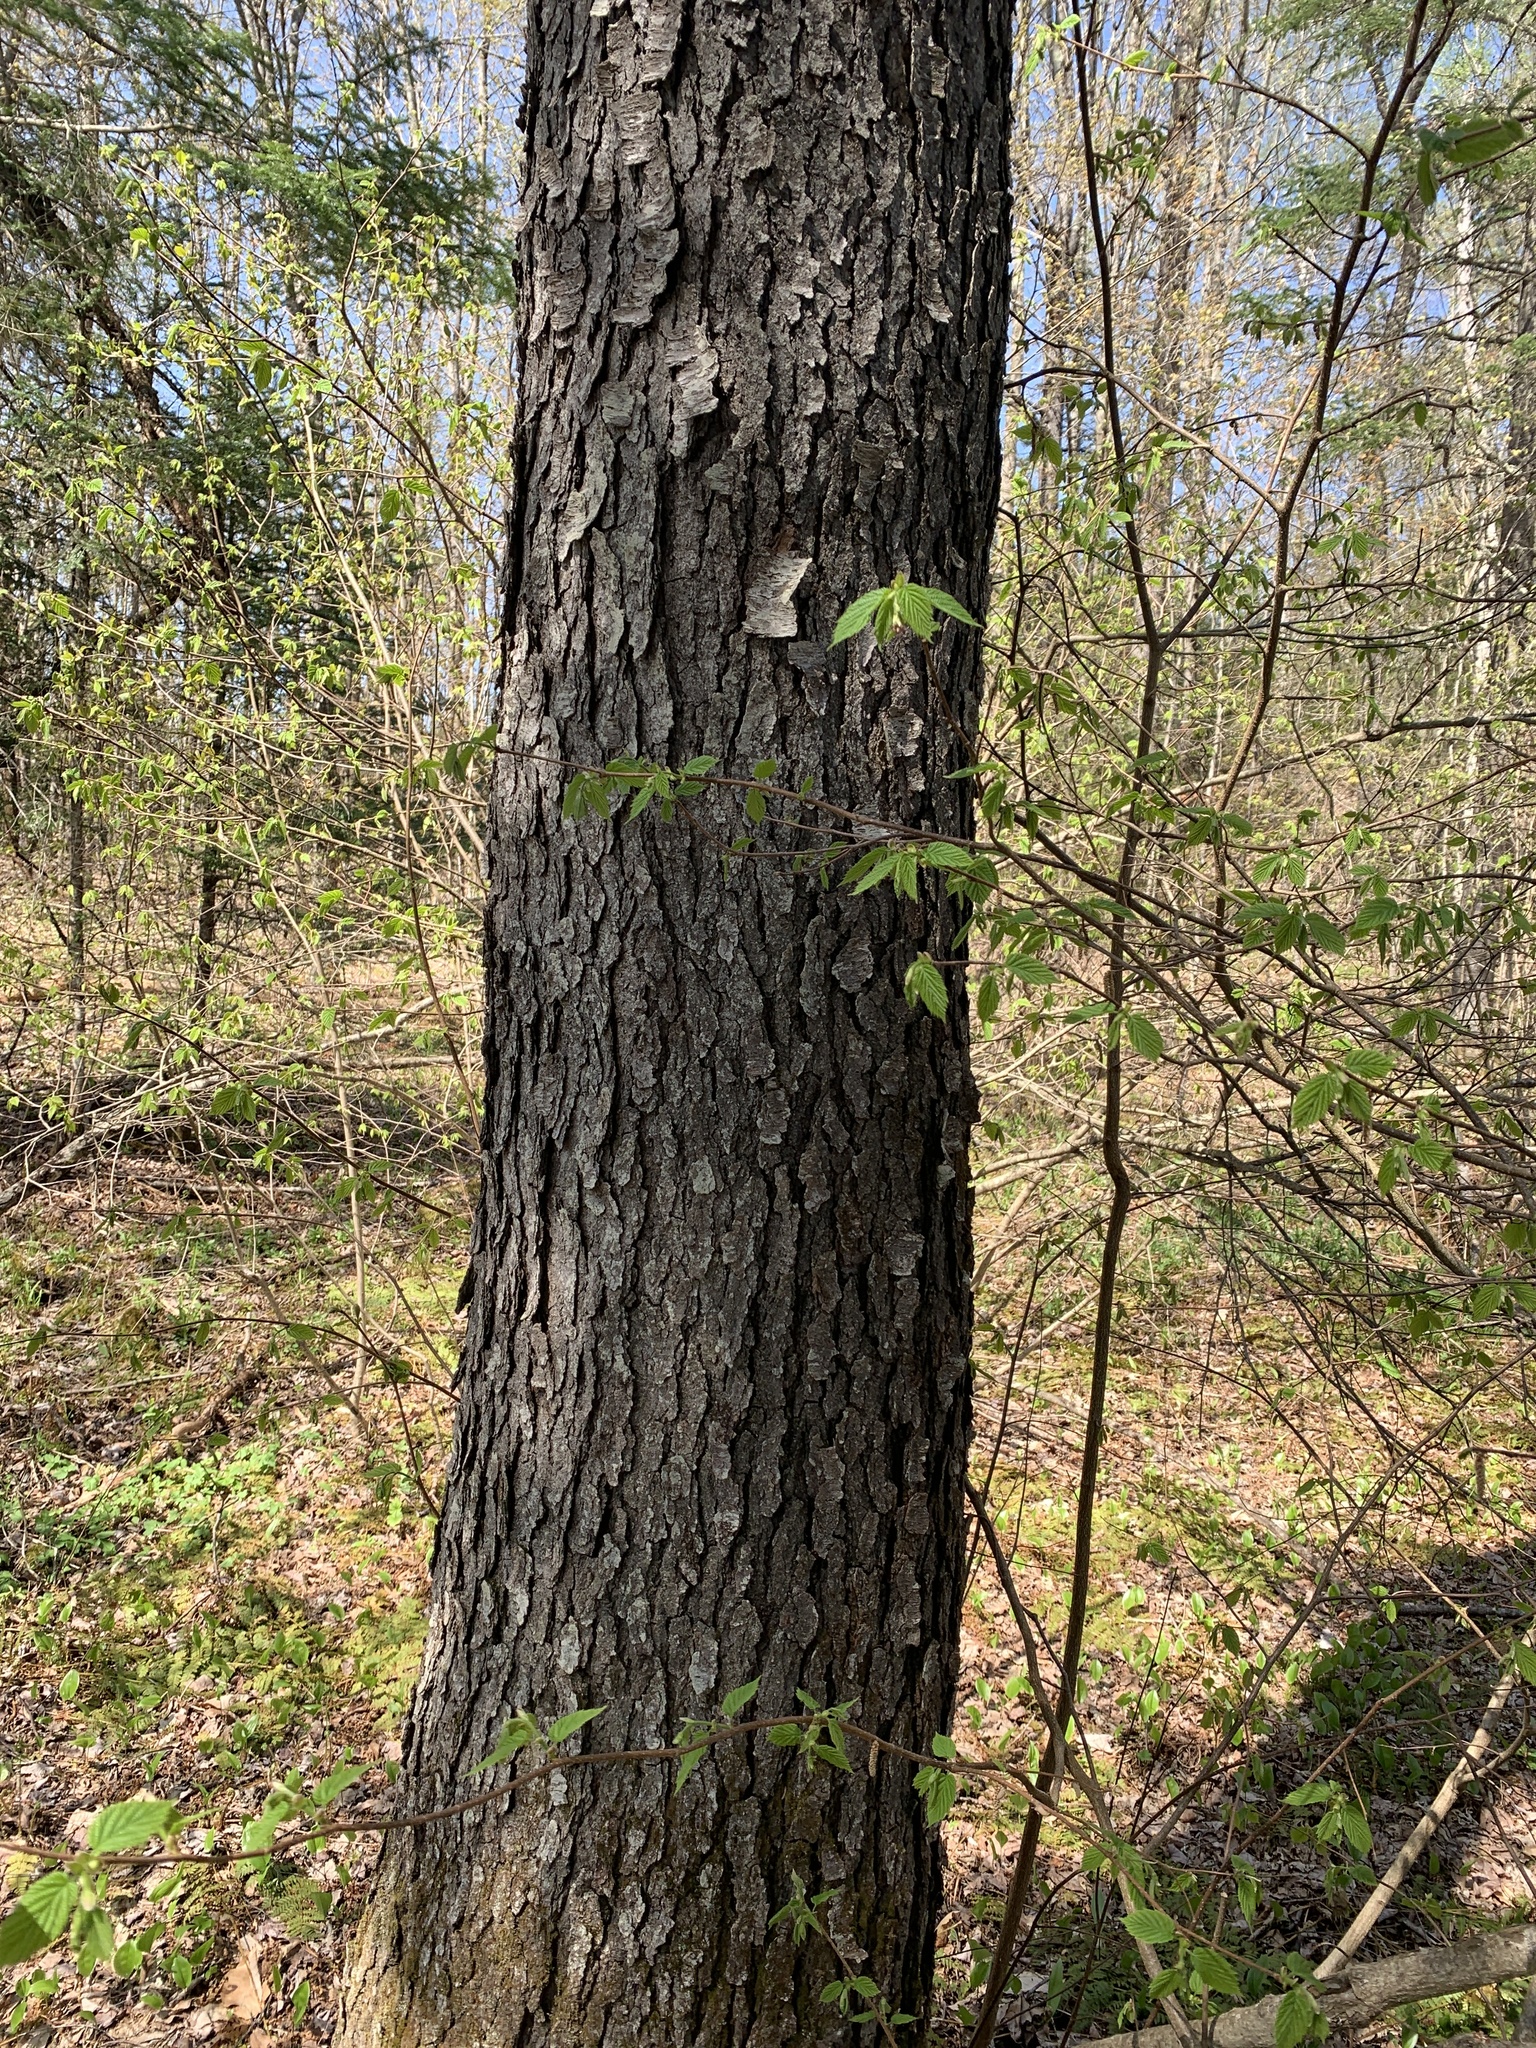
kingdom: Plantae
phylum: Tracheophyta
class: Magnoliopsida
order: Rosales
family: Rosaceae
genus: Prunus
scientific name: Prunus serotina
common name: Black cherry
